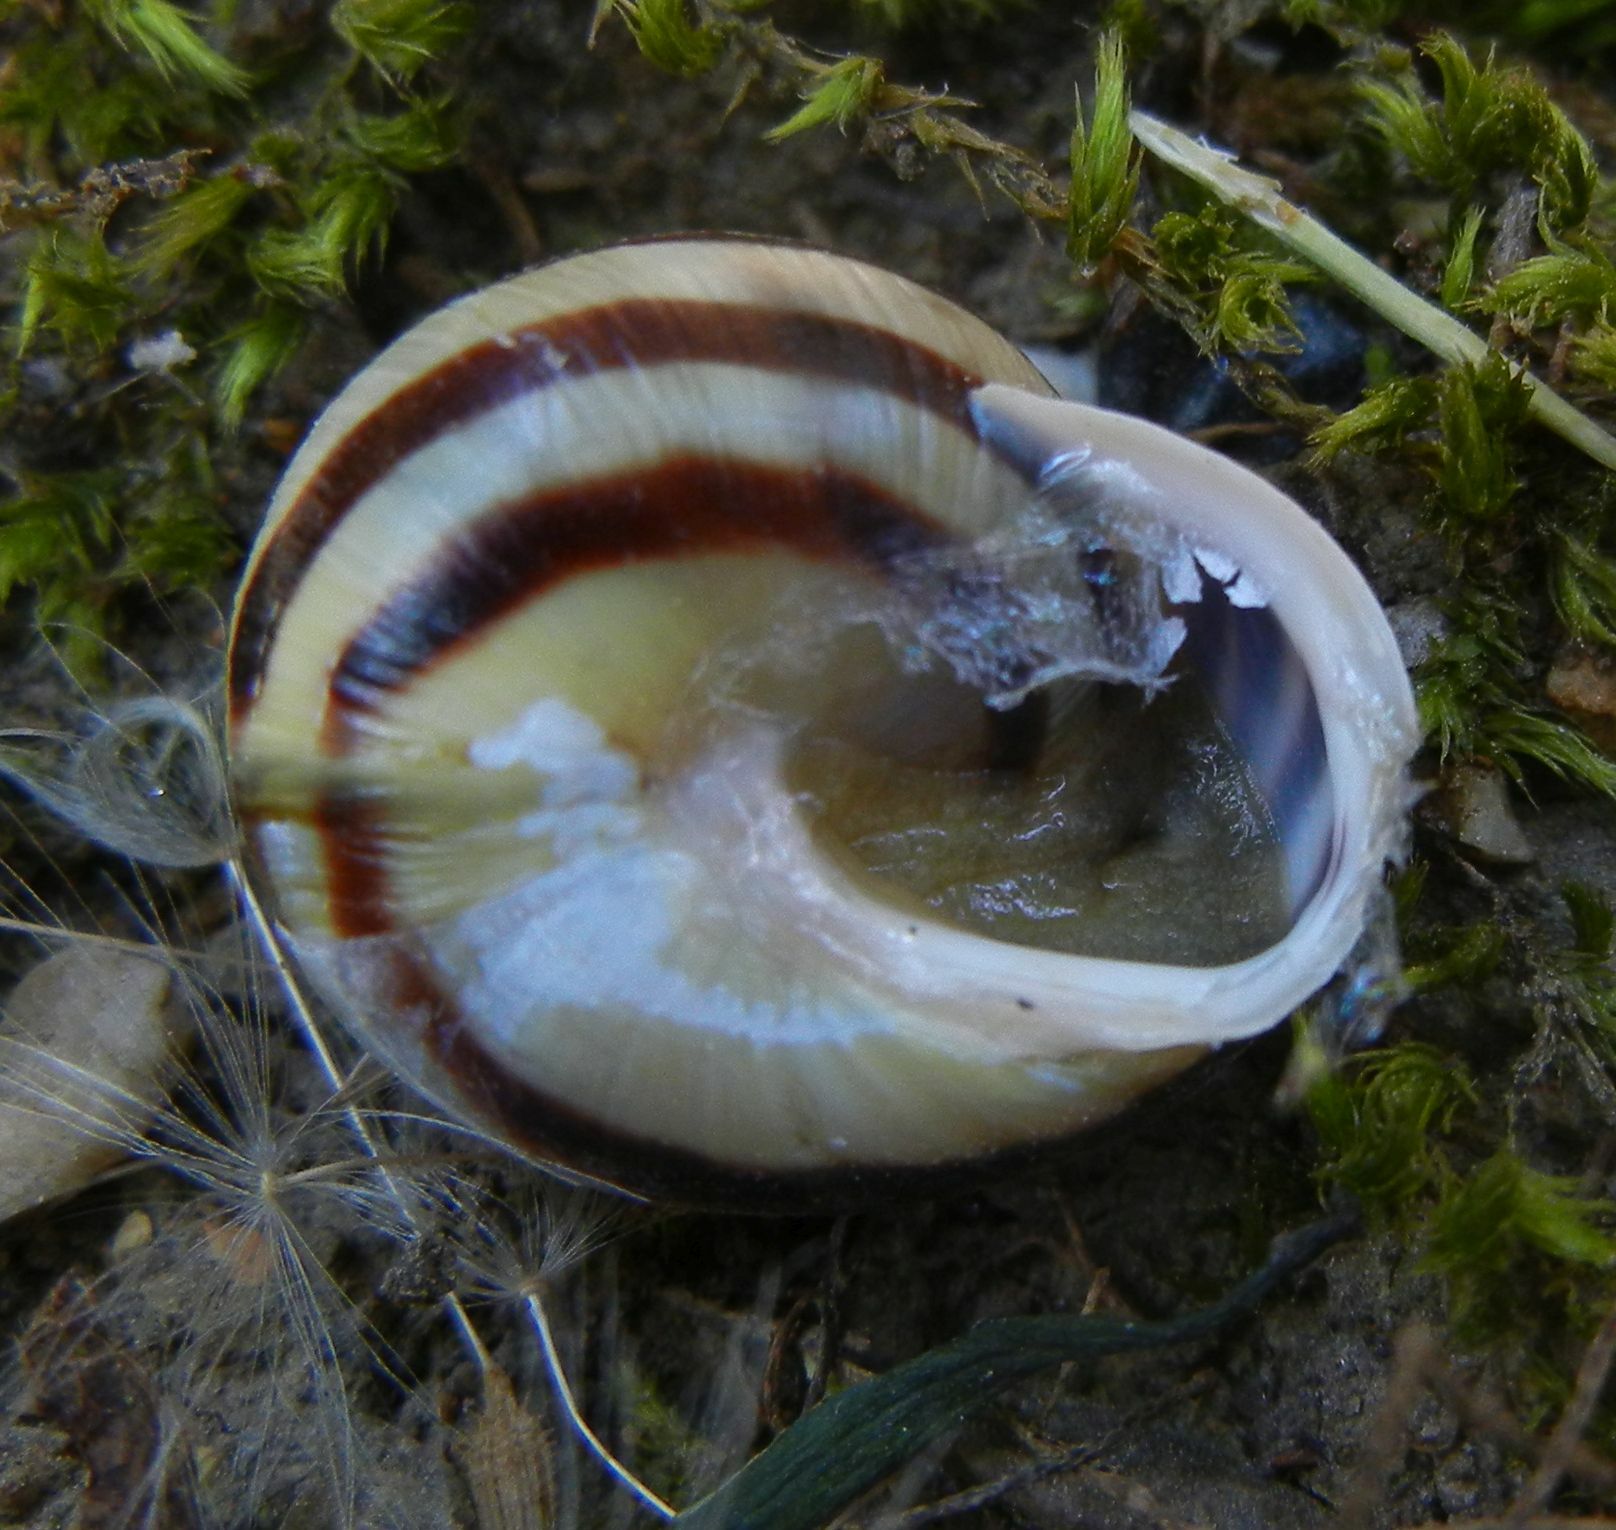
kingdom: Animalia
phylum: Mollusca
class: Gastropoda
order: Stylommatophora
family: Helicidae
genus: Cepaea
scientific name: Cepaea hortensis
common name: White-lip gardensnail
